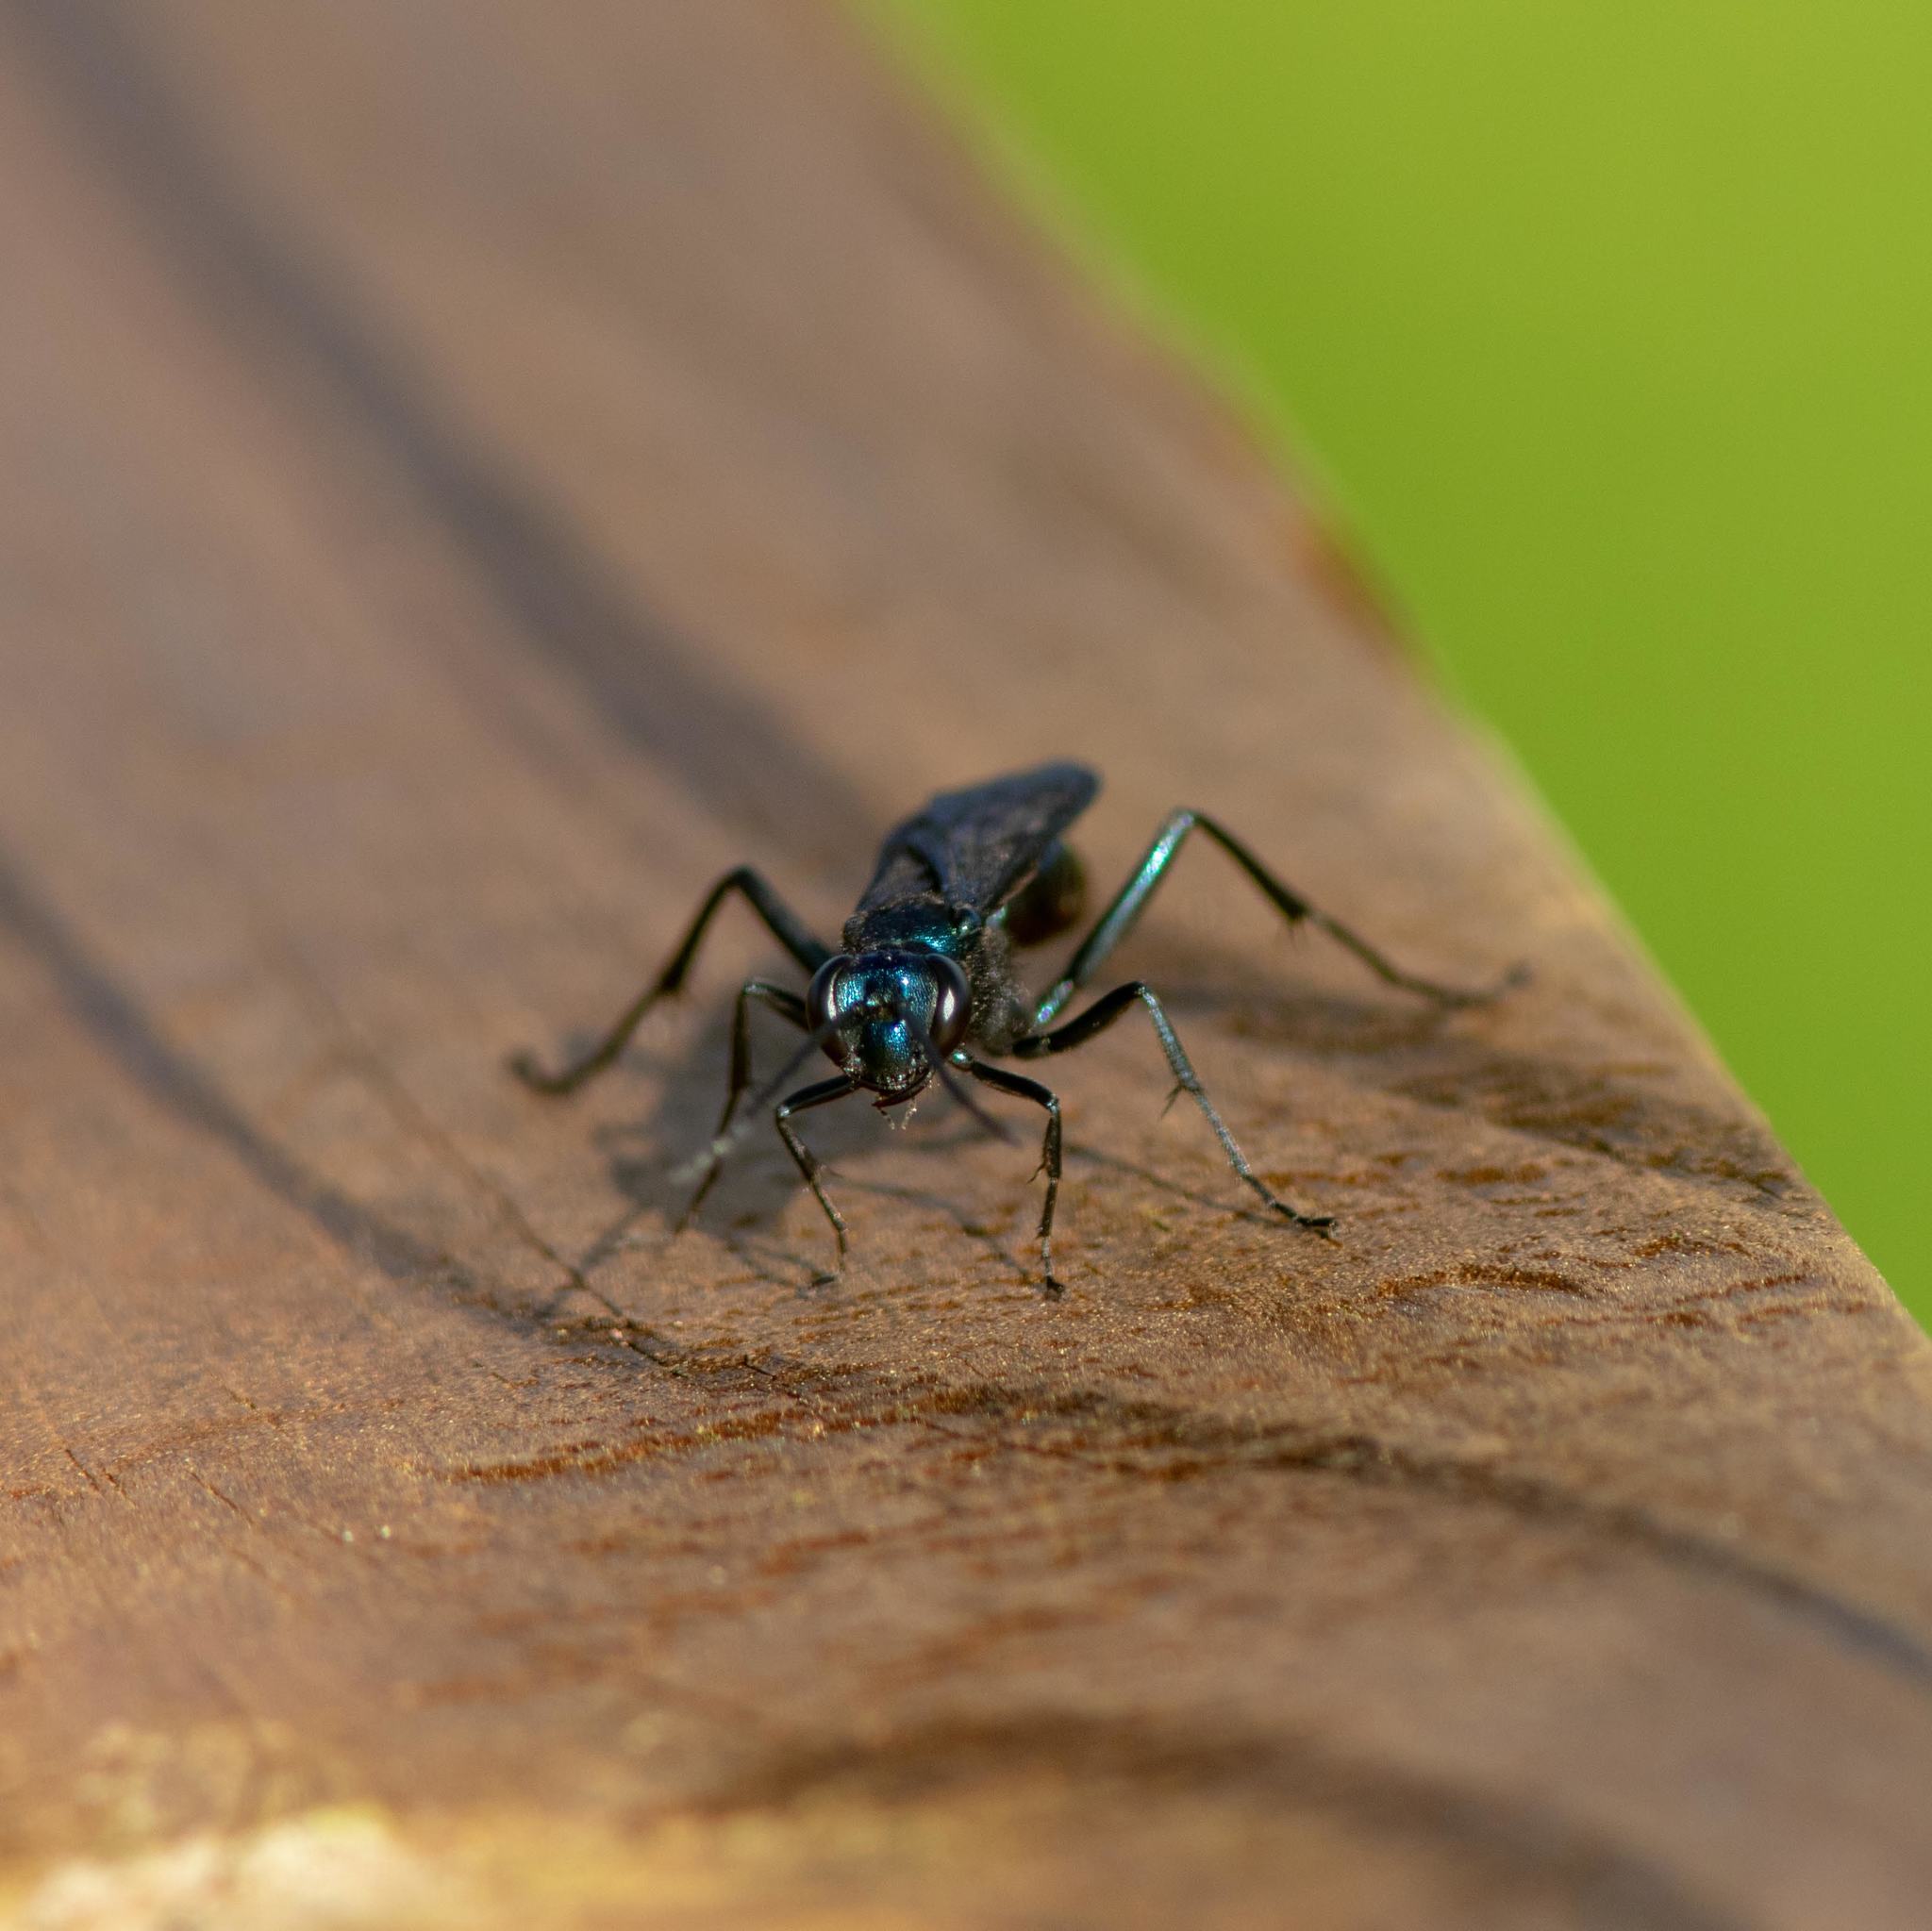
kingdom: Animalia
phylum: Arthropoda
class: Insecta
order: Hymenoptera
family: Sphecidae
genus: Chalybion
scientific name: Chalybion californicum
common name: Mud dauber
